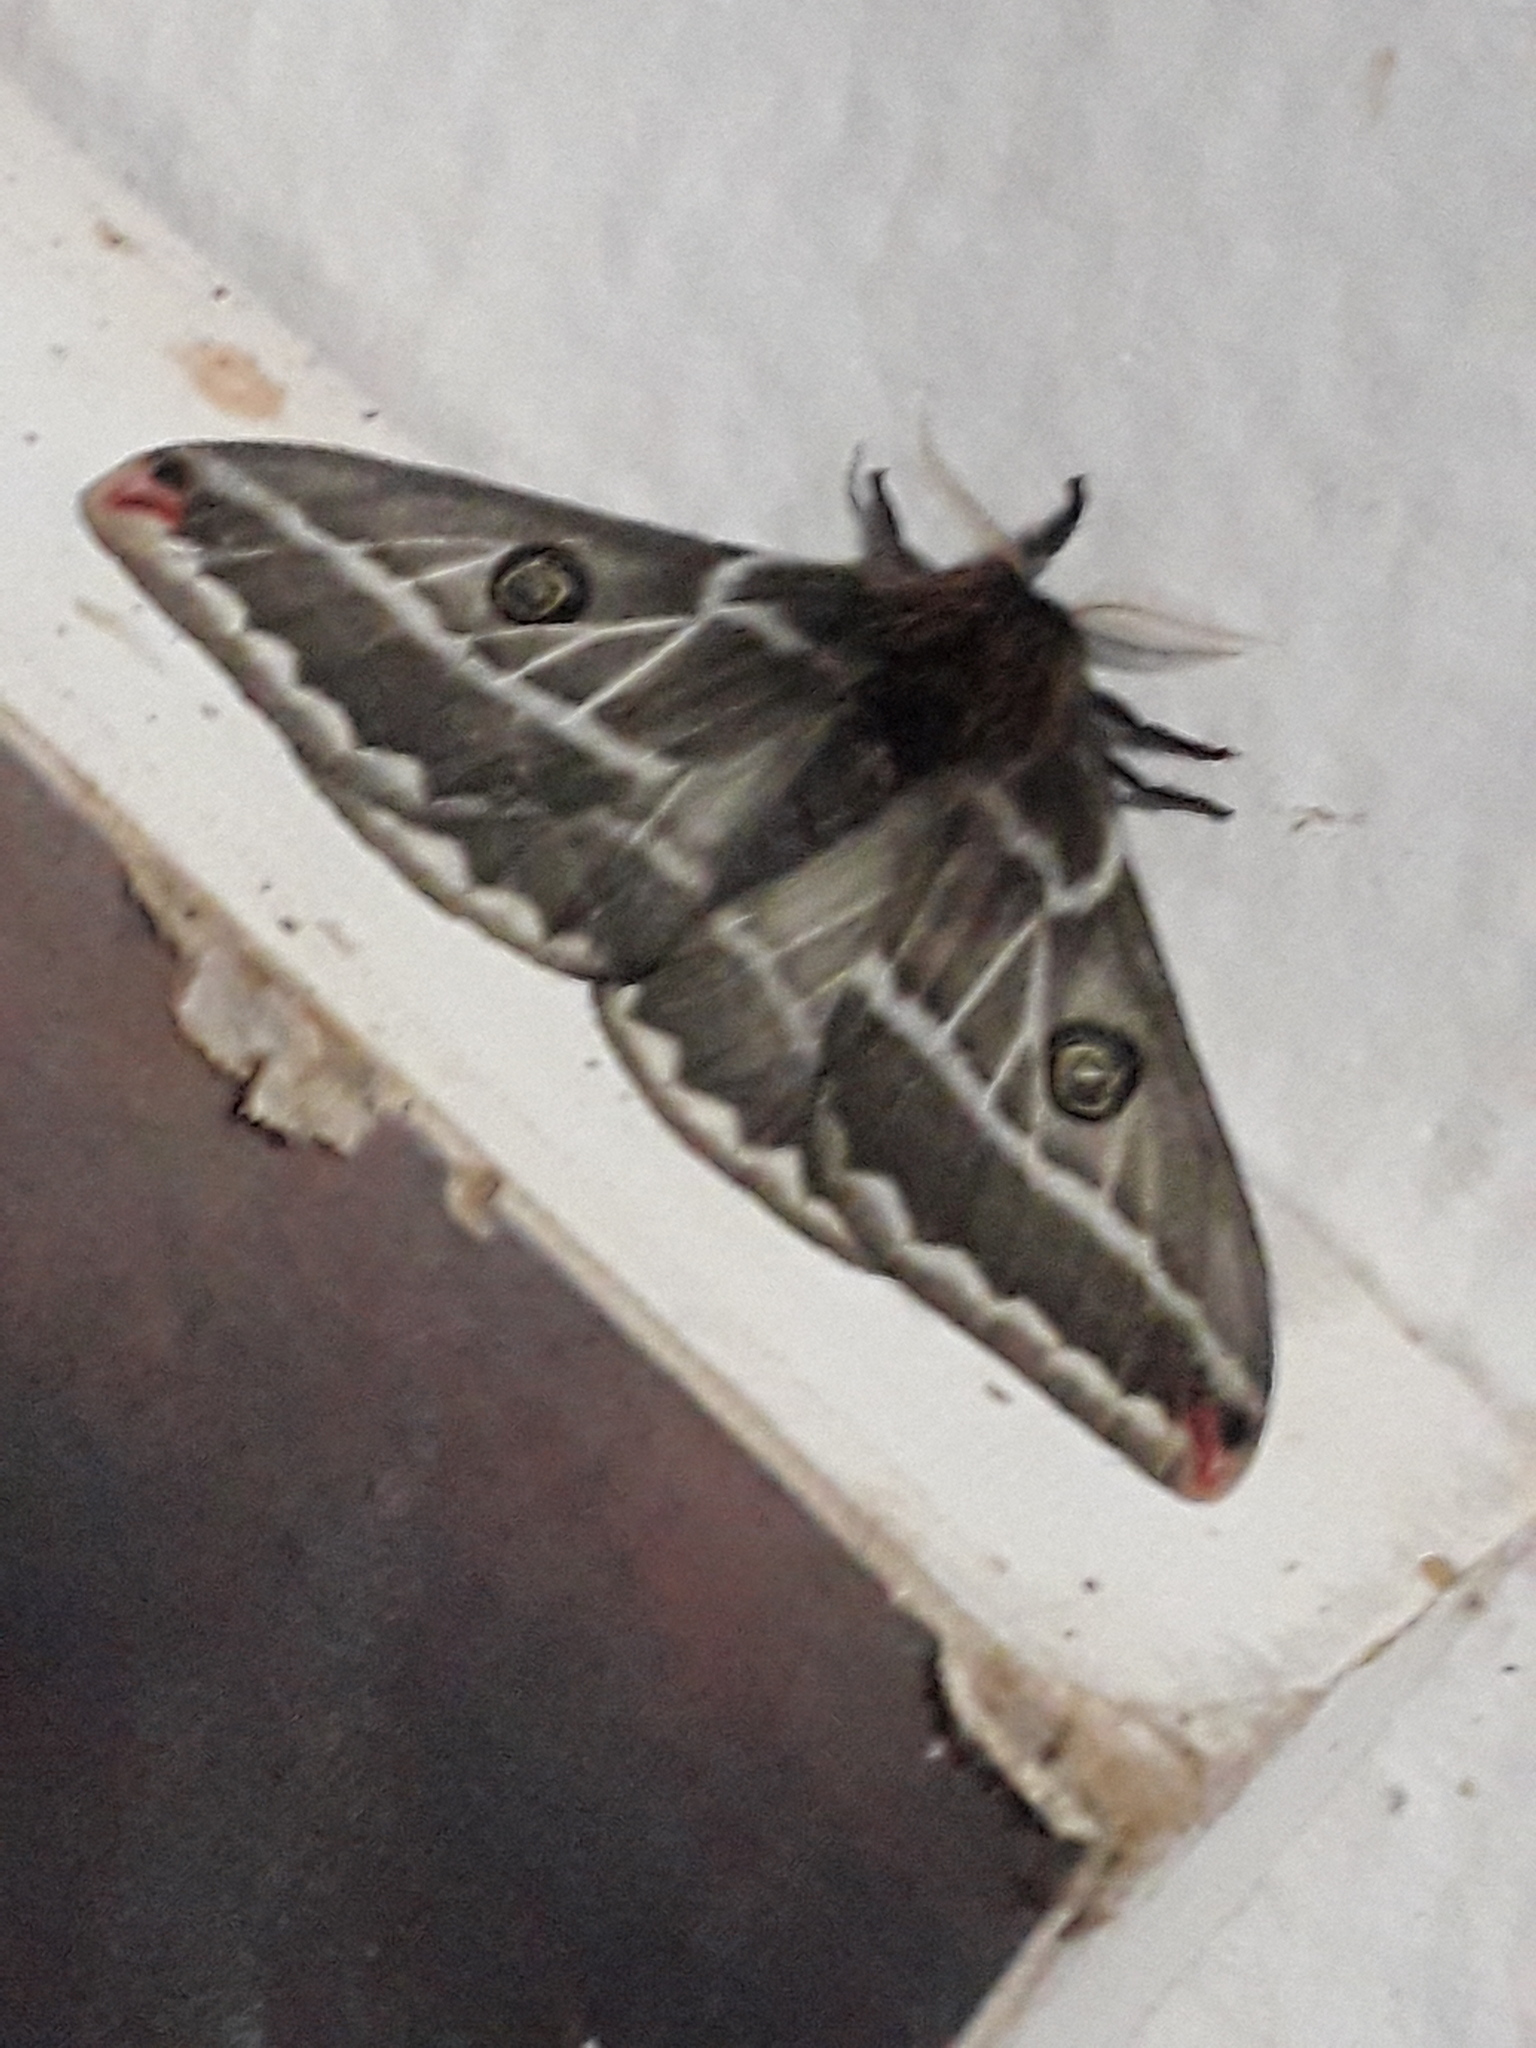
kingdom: Animalia
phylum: Arthropoda
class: Insecta
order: Lepidoptera
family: Saturniidae
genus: Agapema
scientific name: Agapema
